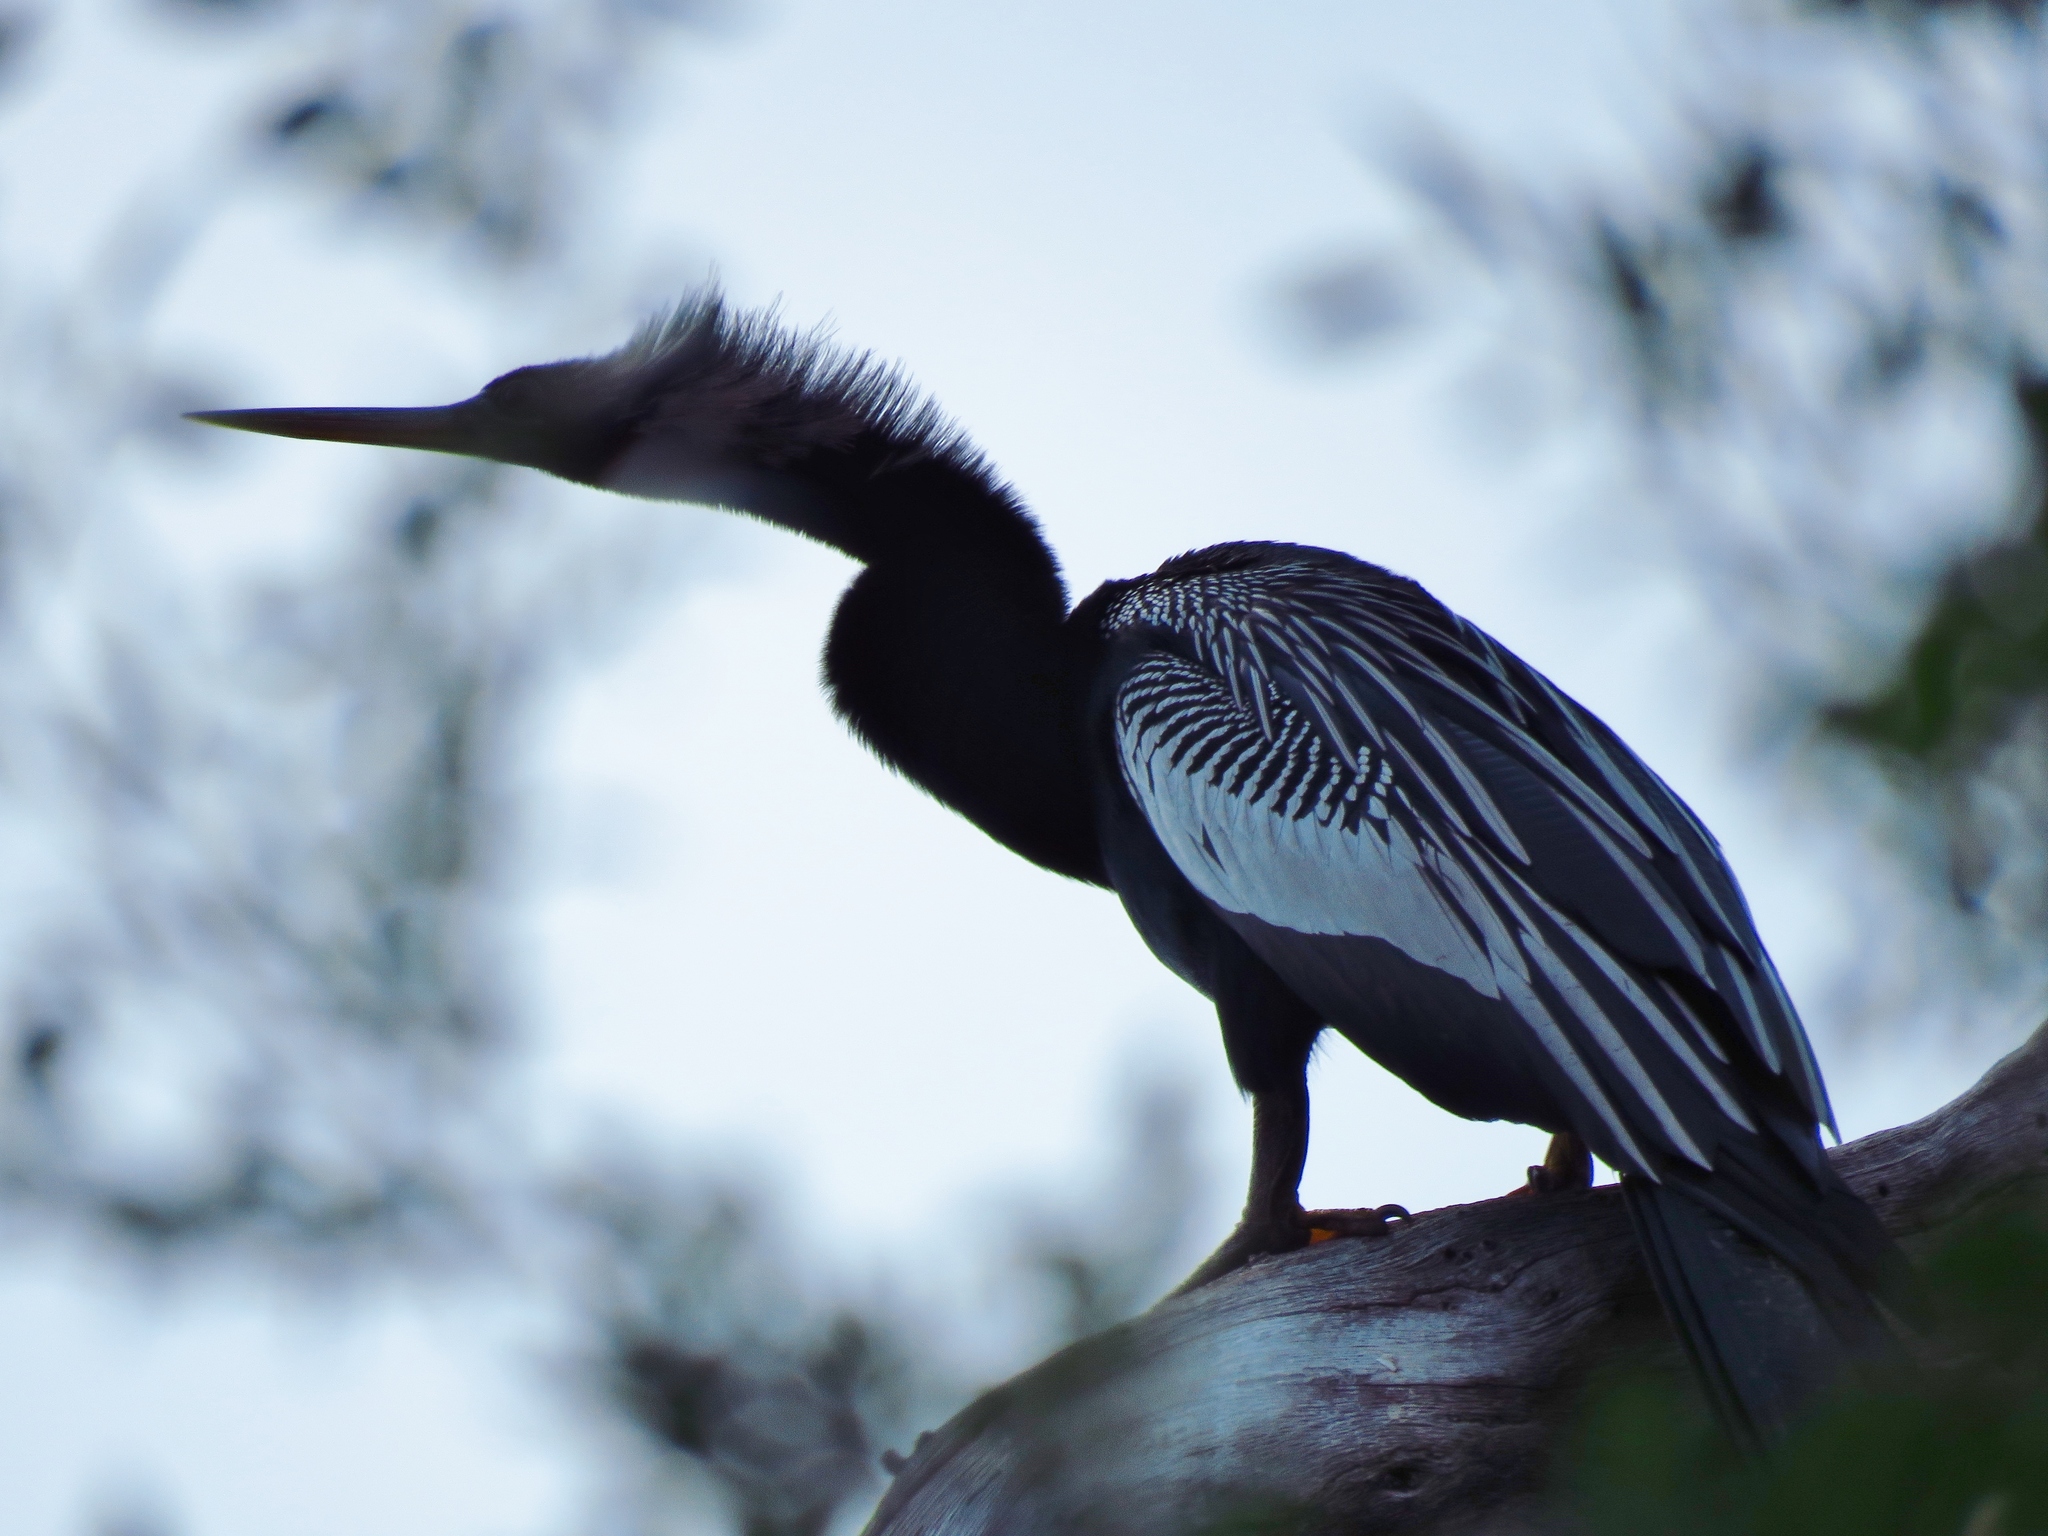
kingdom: Animalia
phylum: Chordata
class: Aves
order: Suliformes
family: Anhingidae
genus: Anhinga
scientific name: Anhinga anhinga
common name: Anhinga
